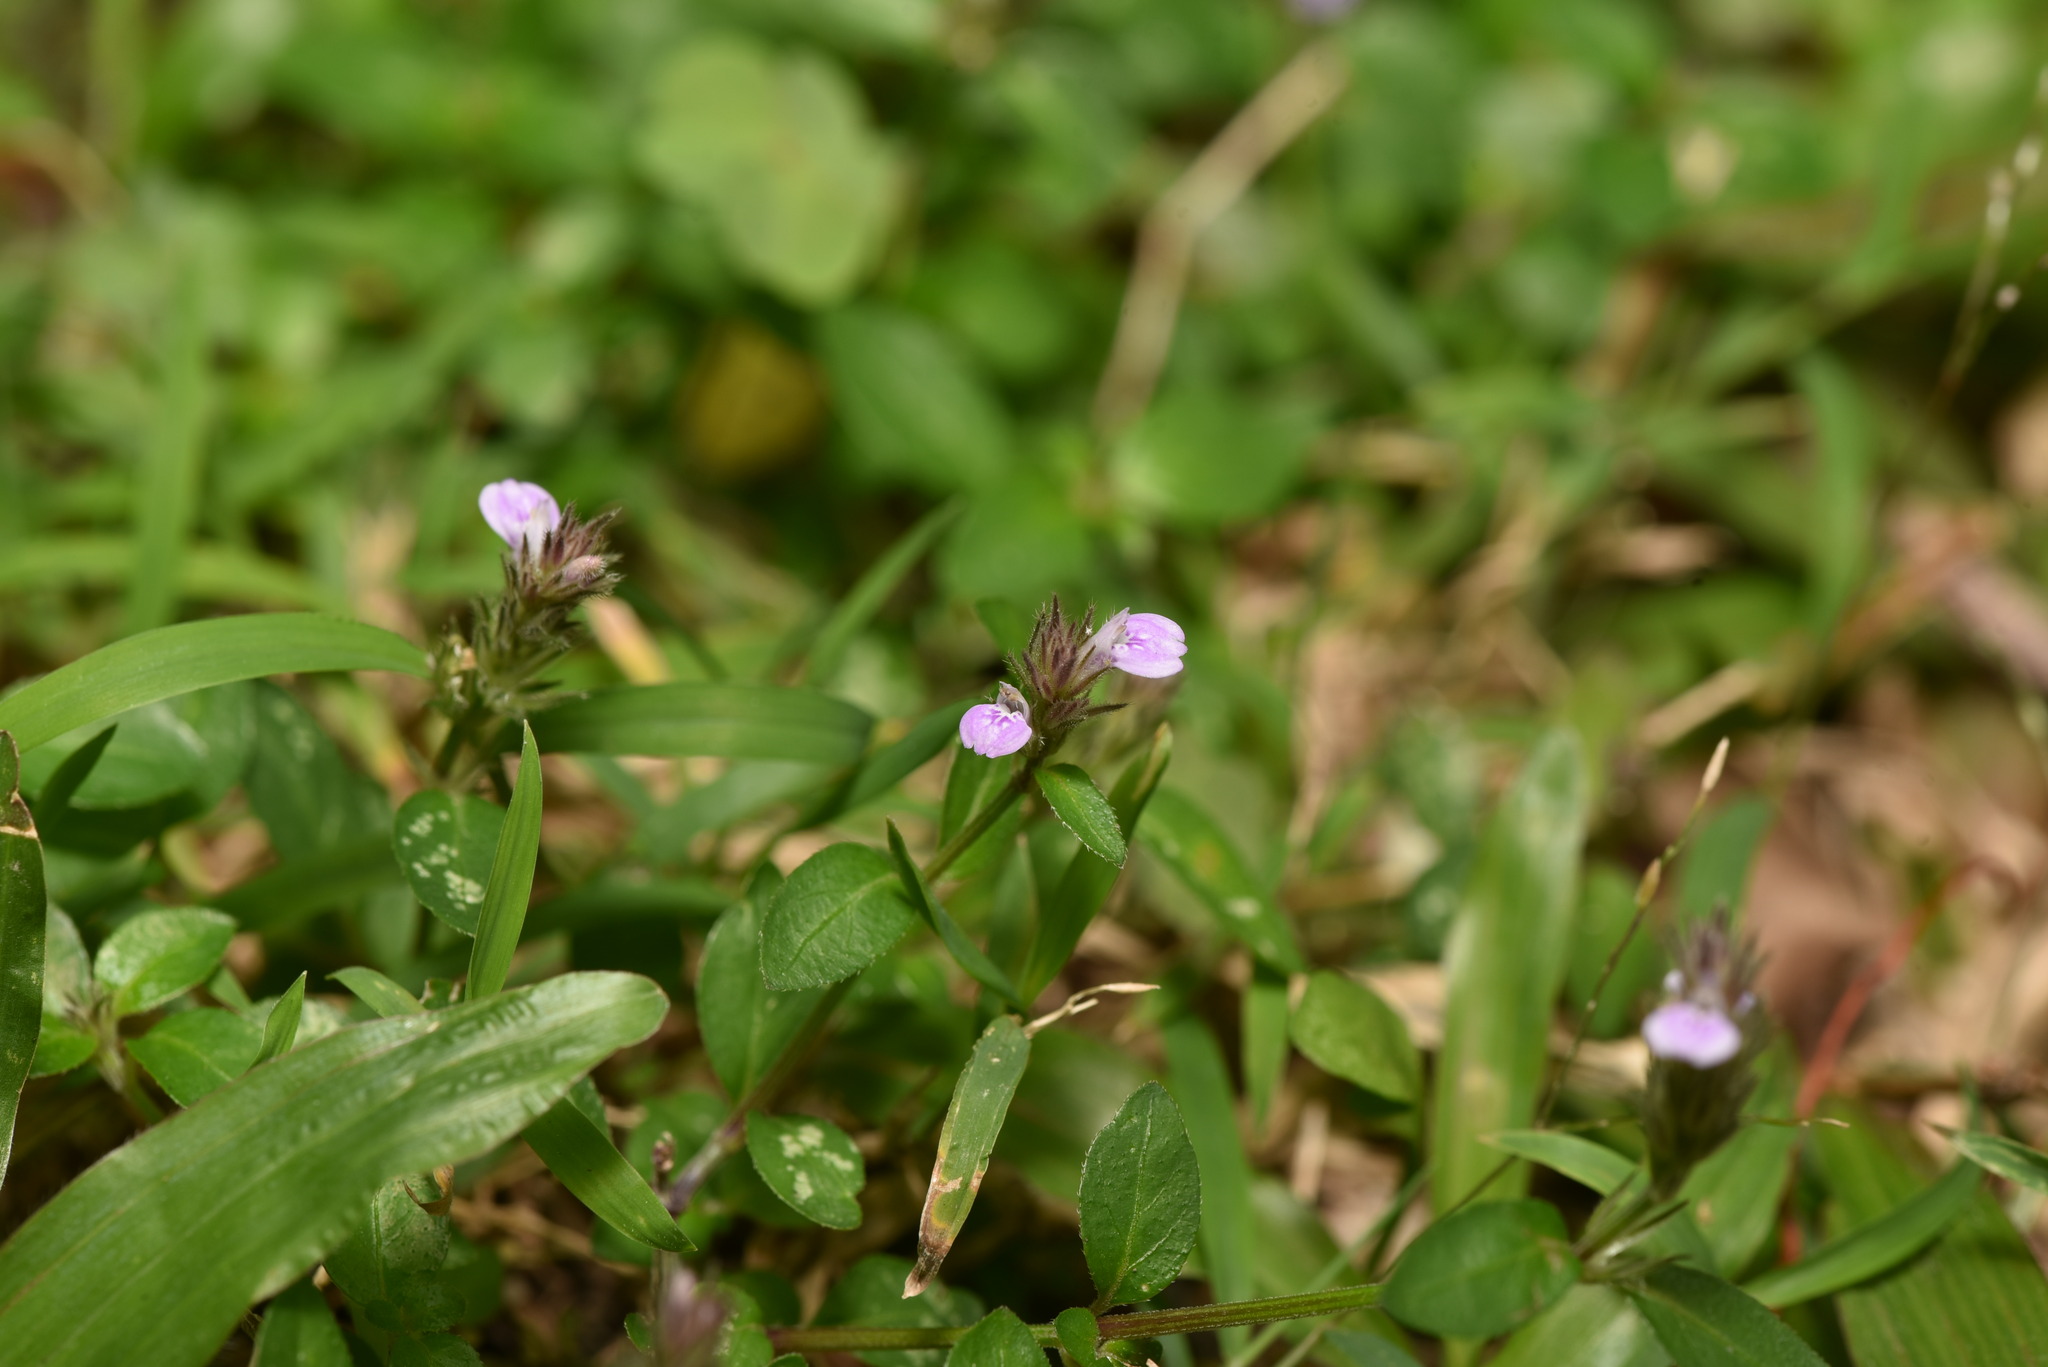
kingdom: Plantae
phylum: Tracheophyta
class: Magnoliopsida
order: Lamiales
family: Acanthaceae
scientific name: Acanthaceae
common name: Acanthaceae
